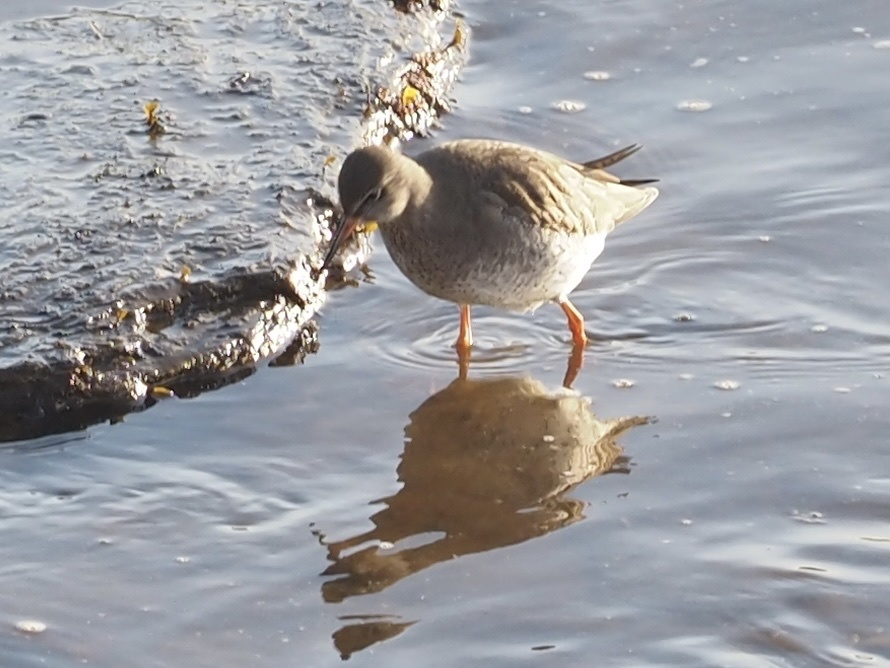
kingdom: Animalia
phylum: Chordata
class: Aves
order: Charadriiformes
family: Scolopacidae
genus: Tringa
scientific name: Tringa totanus
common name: Common redshank
